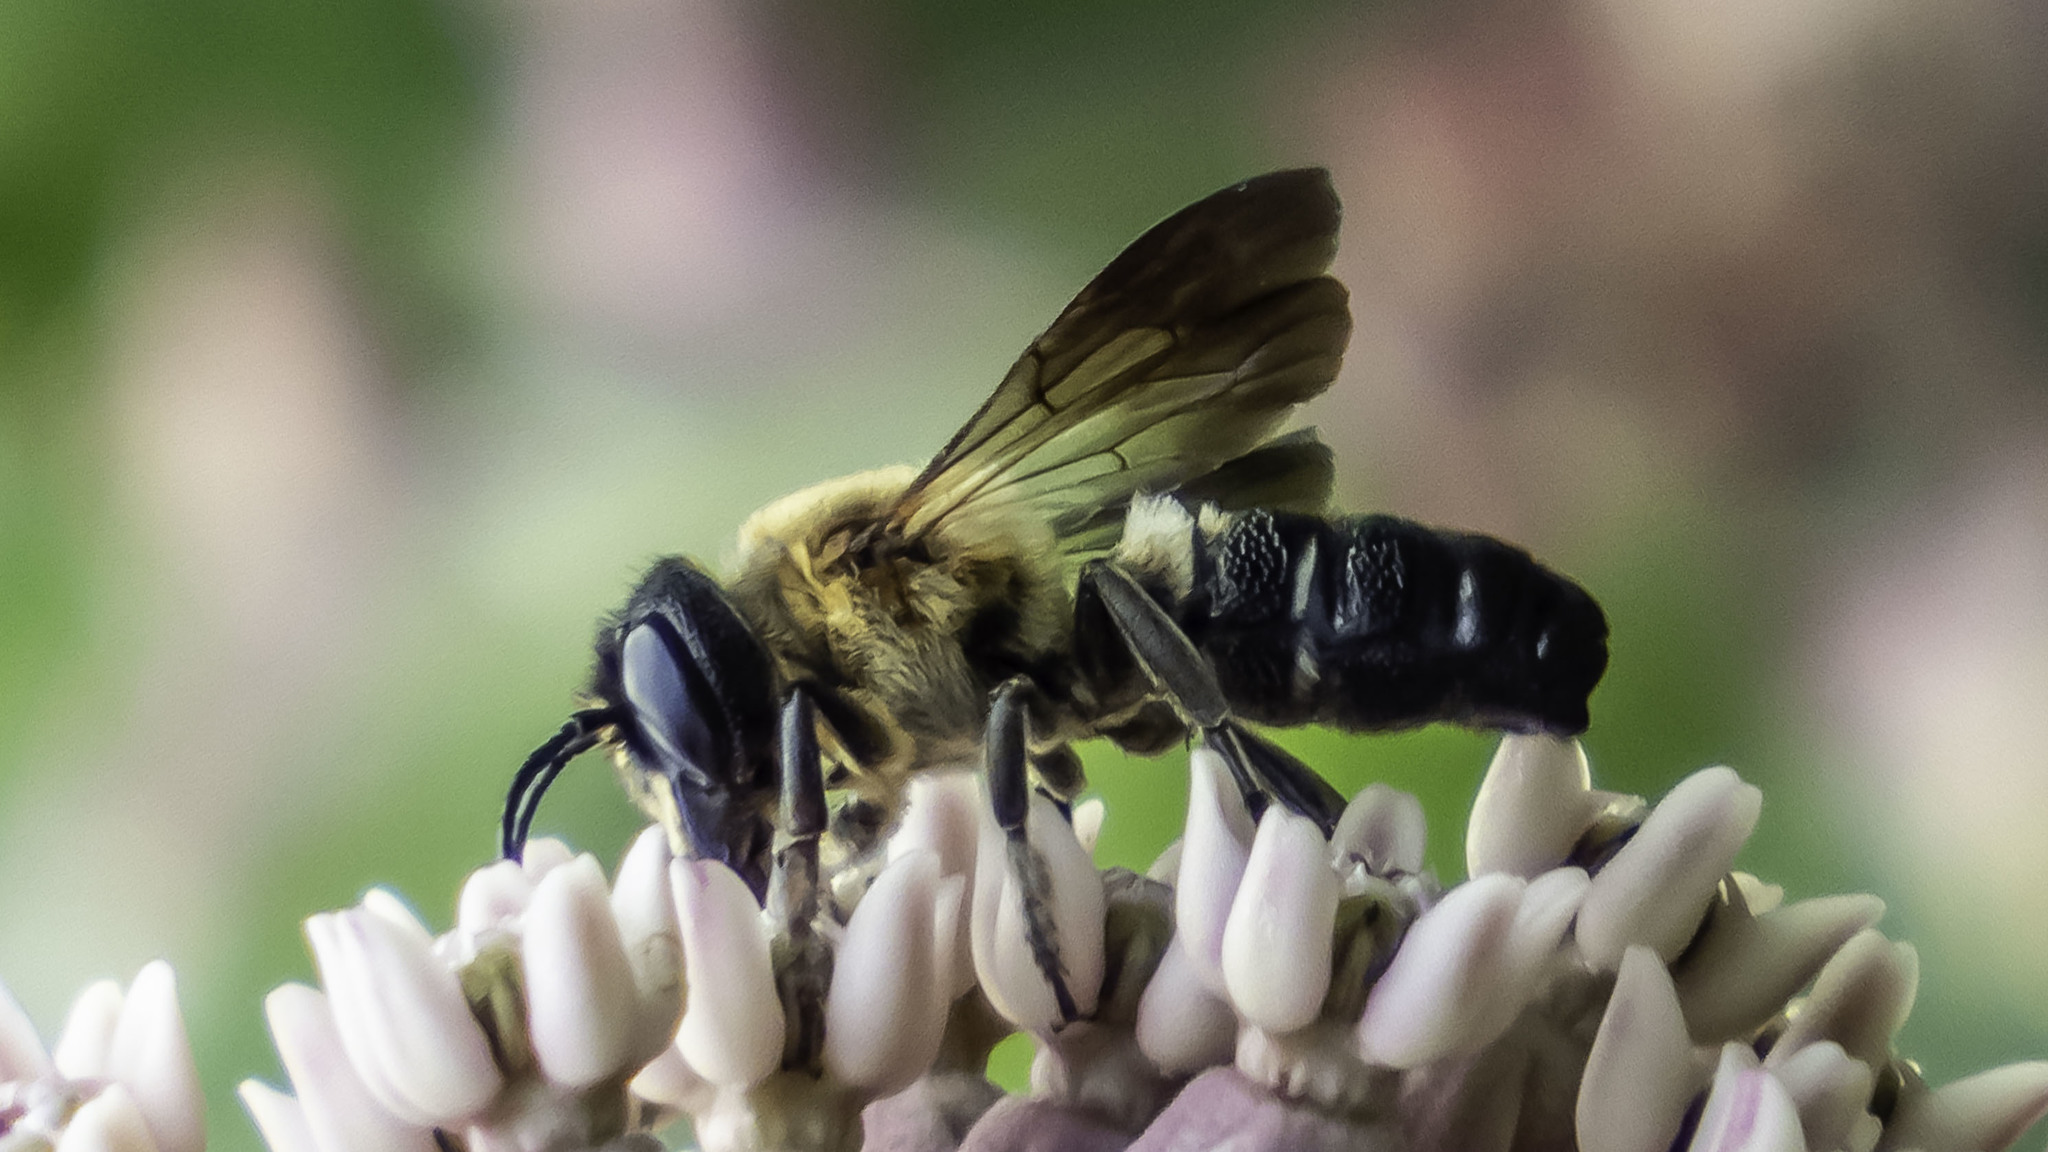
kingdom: Animalia
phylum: Arthropoda
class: Insecta
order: Hymenoptera
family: Megachilidae
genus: Megachile
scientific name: Megachile sculpturalis
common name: Sculptured resin bee
